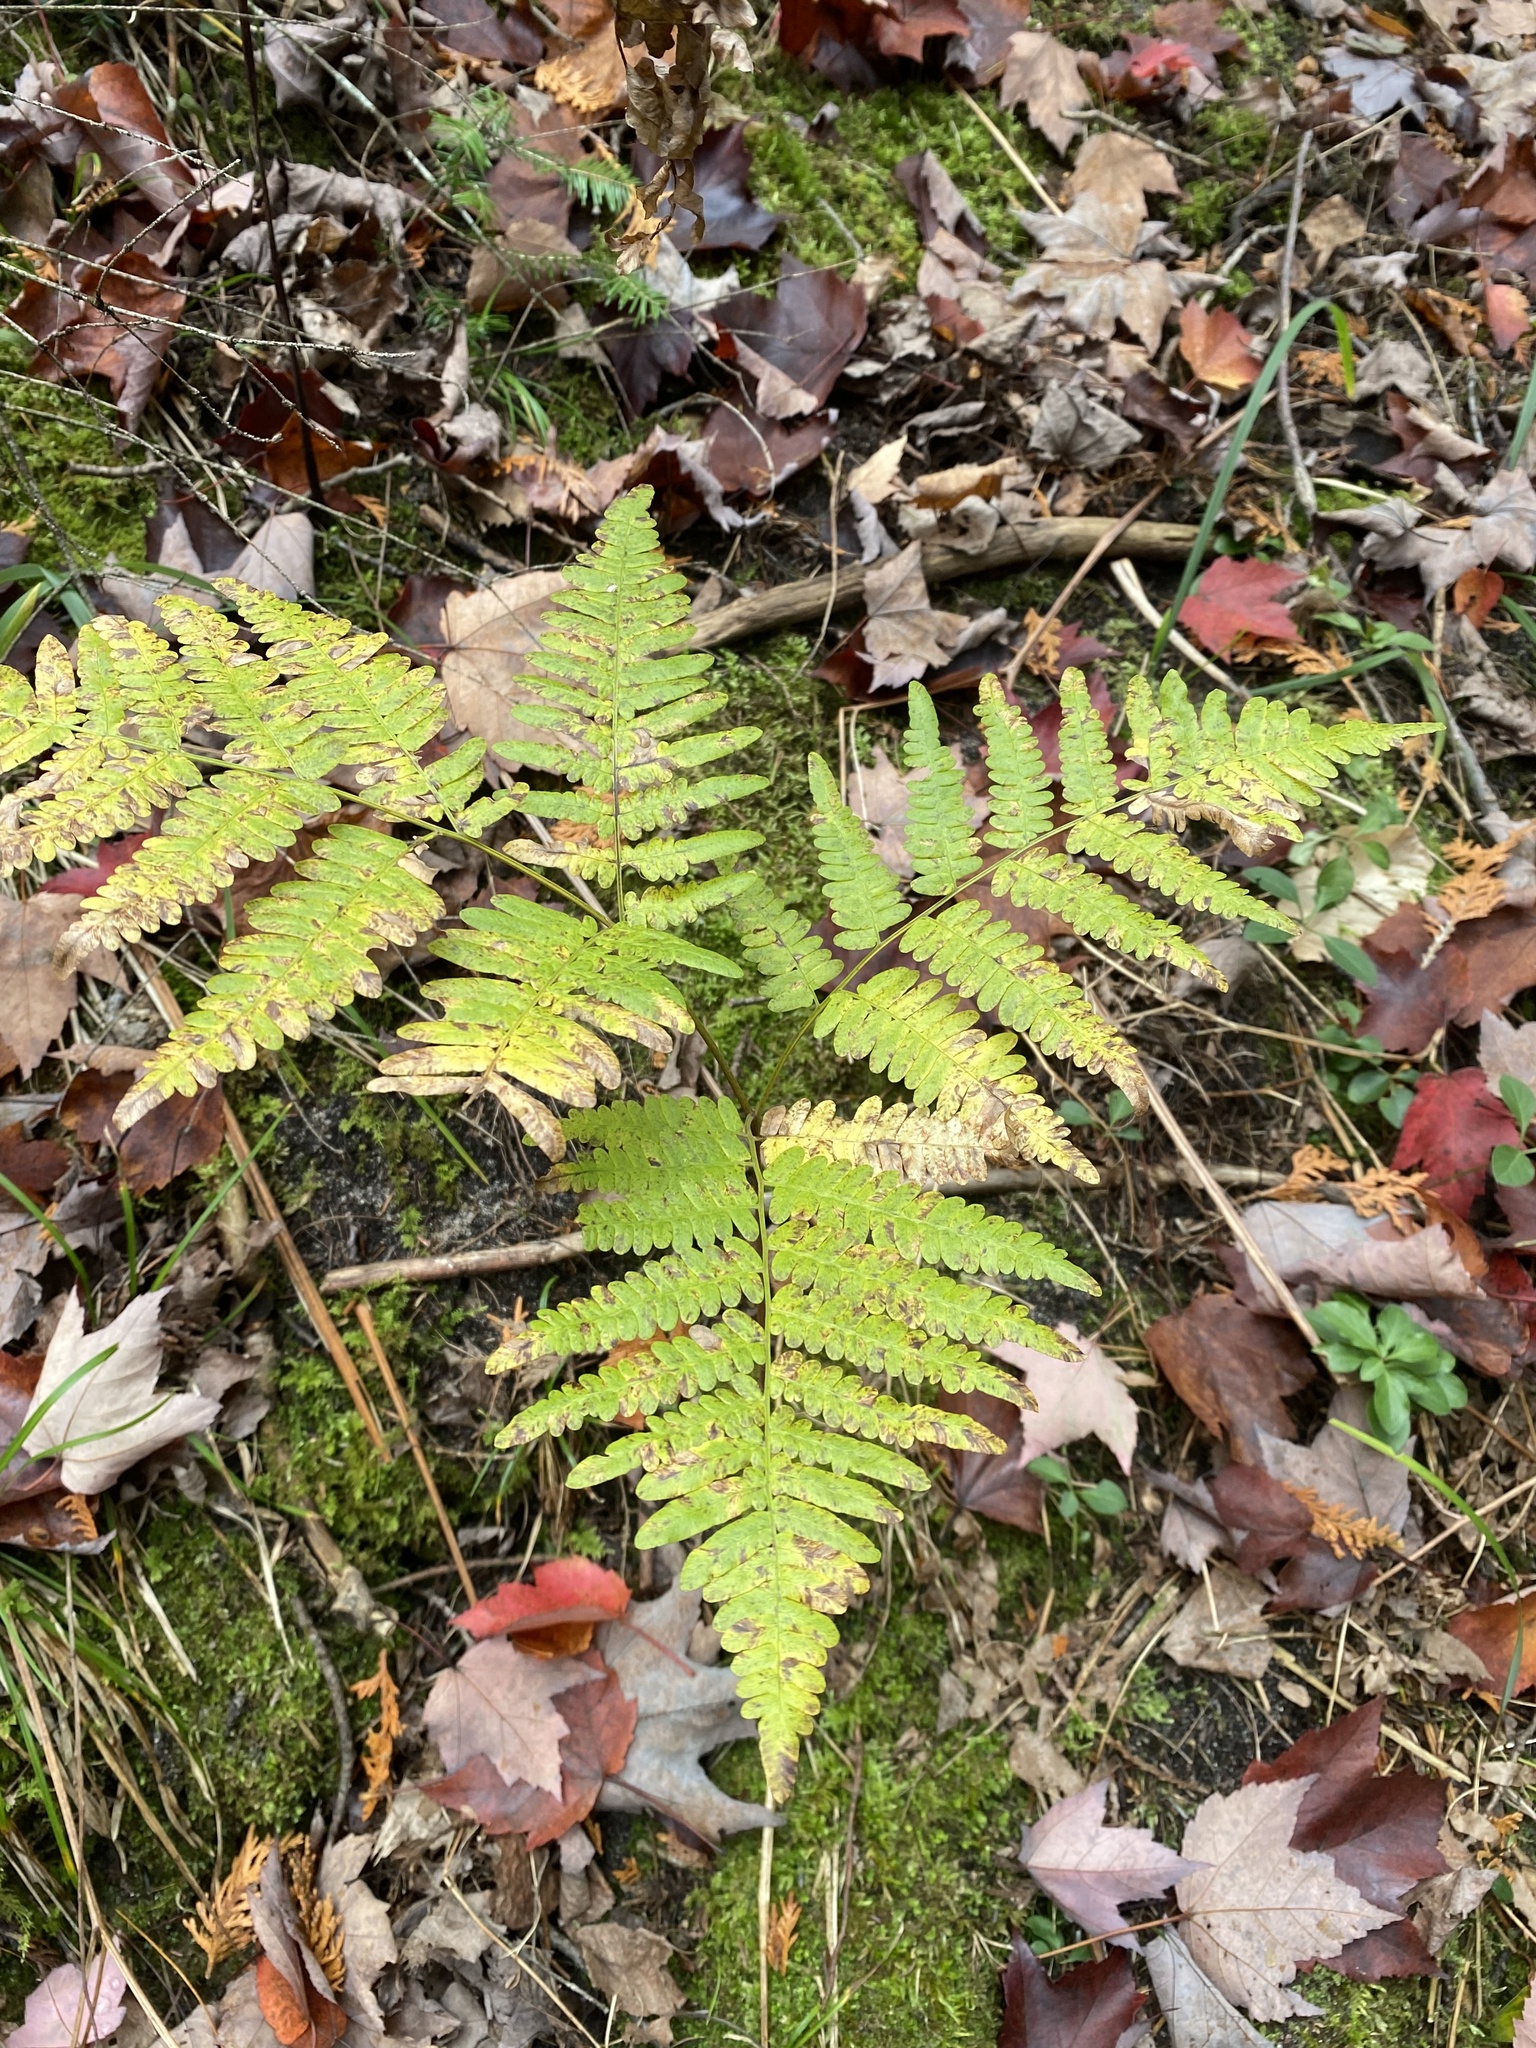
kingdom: Plantae
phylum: Tracheophyta
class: Polypodiopsida
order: Polypodiales
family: Dennstaedtiaceae
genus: Pteridium
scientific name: Pteridium aquilinum
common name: Bracken
